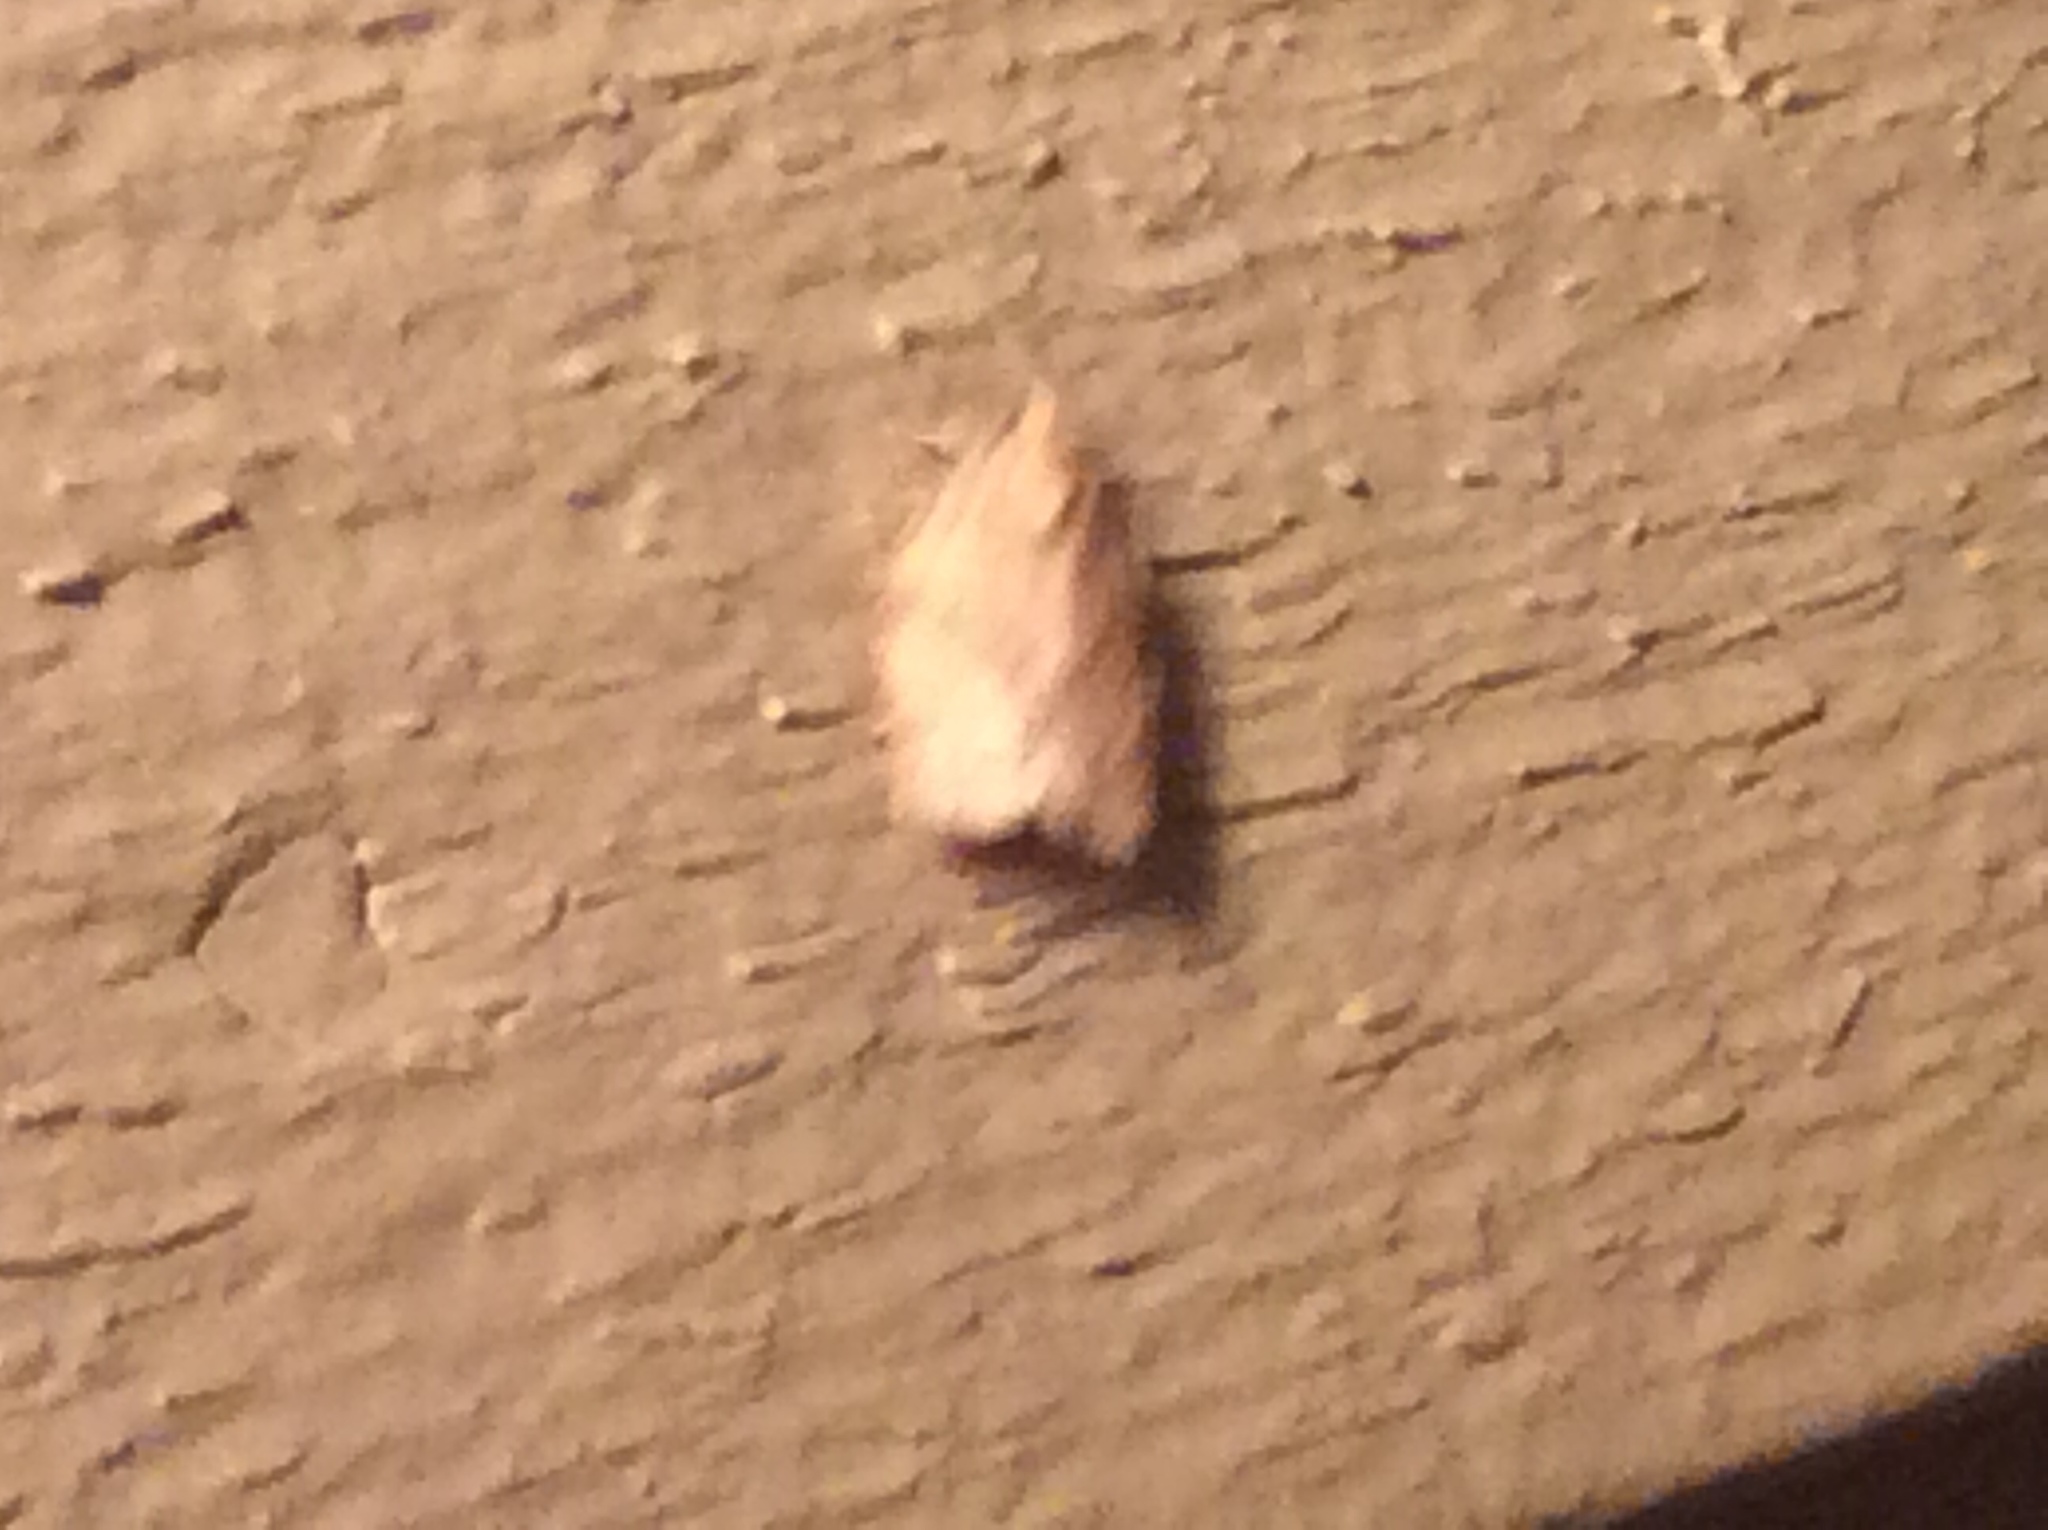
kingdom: Animalia
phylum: Arthropoda
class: Insecta
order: Lepidoptera
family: Tortricidae
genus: Choristoneura
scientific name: Choristoneura rosaceana
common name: Oblique-banded leafroller moth
